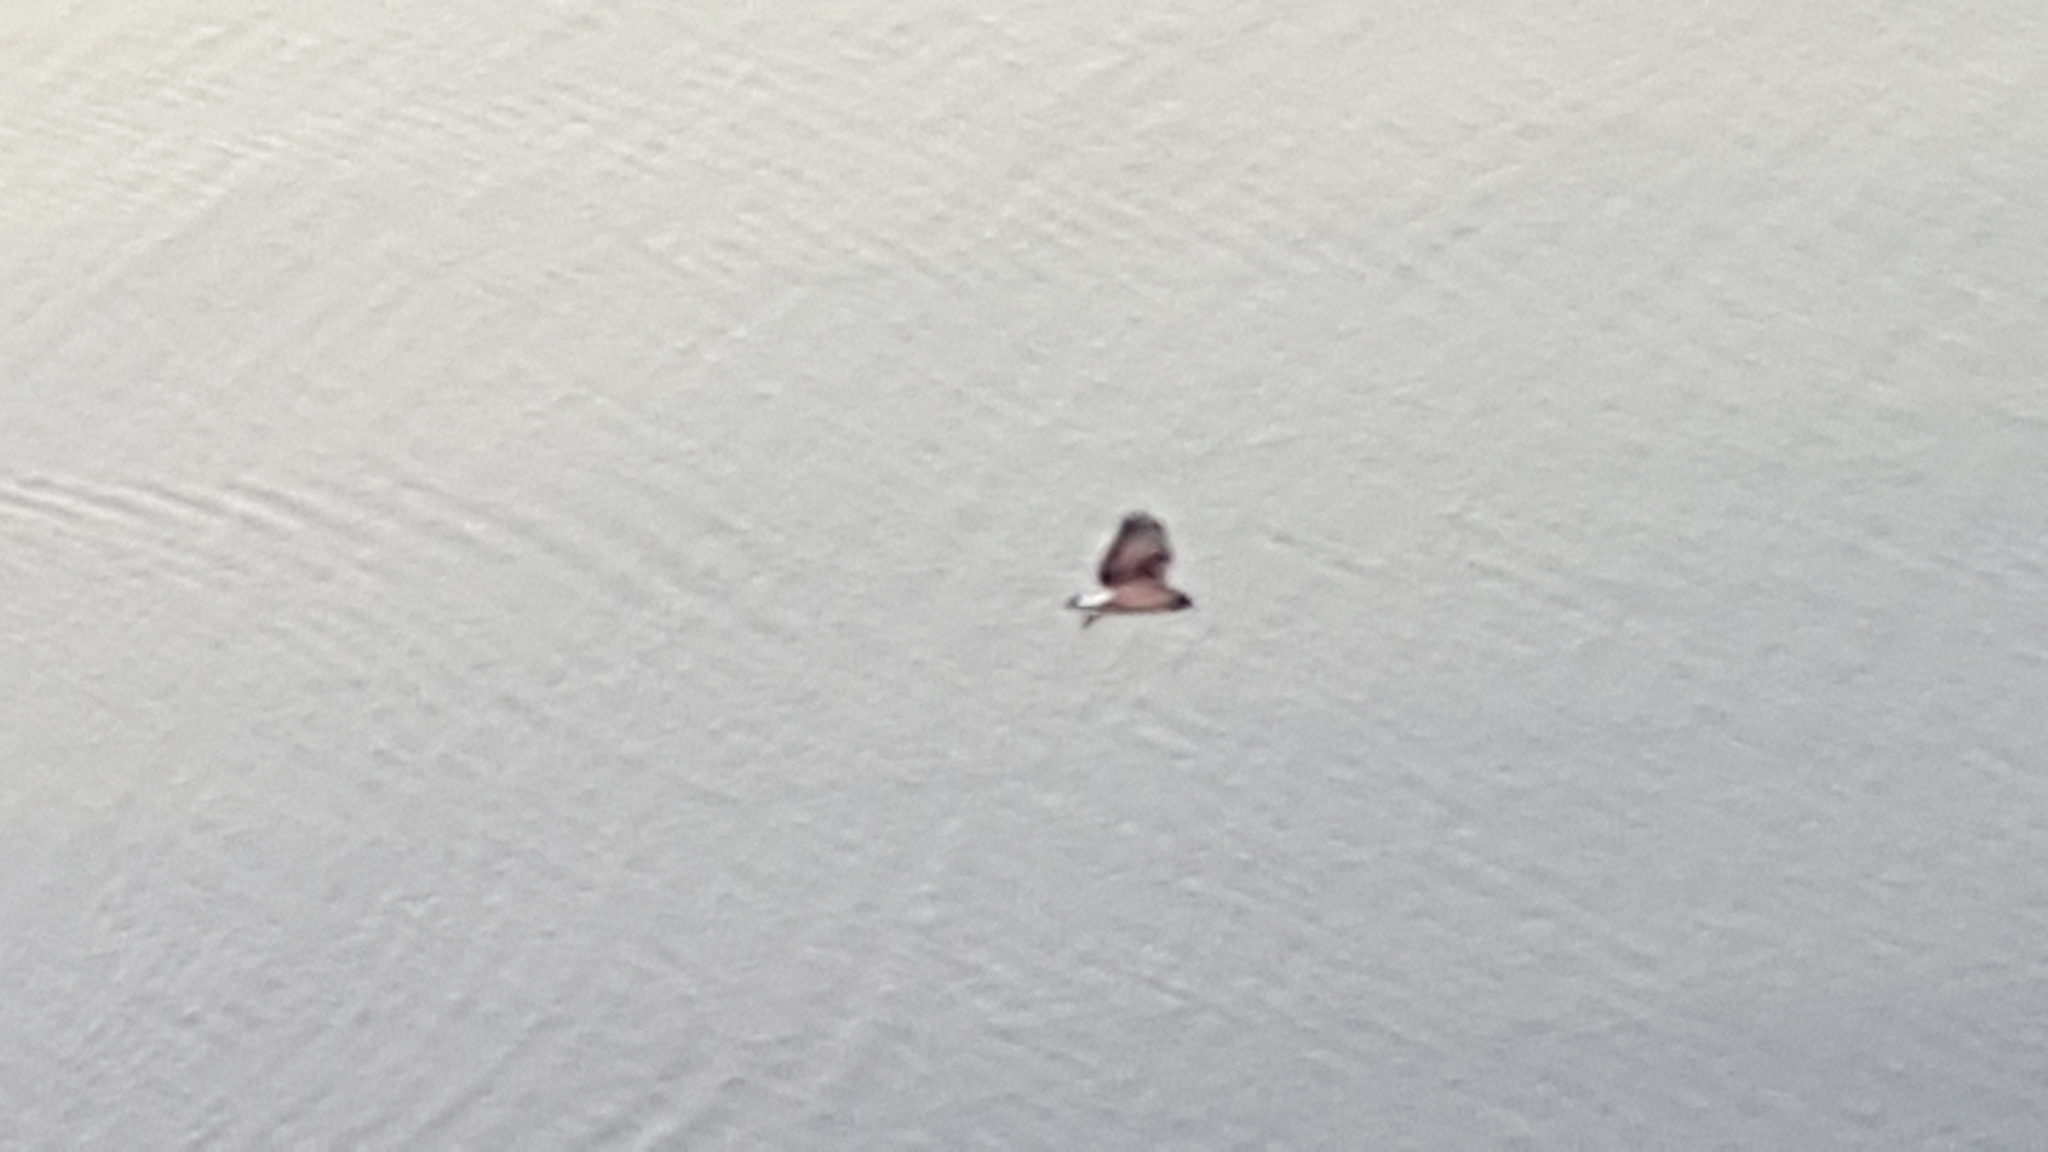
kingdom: Animalia
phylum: Chordata
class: Aves
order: Accipitriformes
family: Accipitridae
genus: Buteo
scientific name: Buteo albicaudatus
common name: White-tailed hawk
